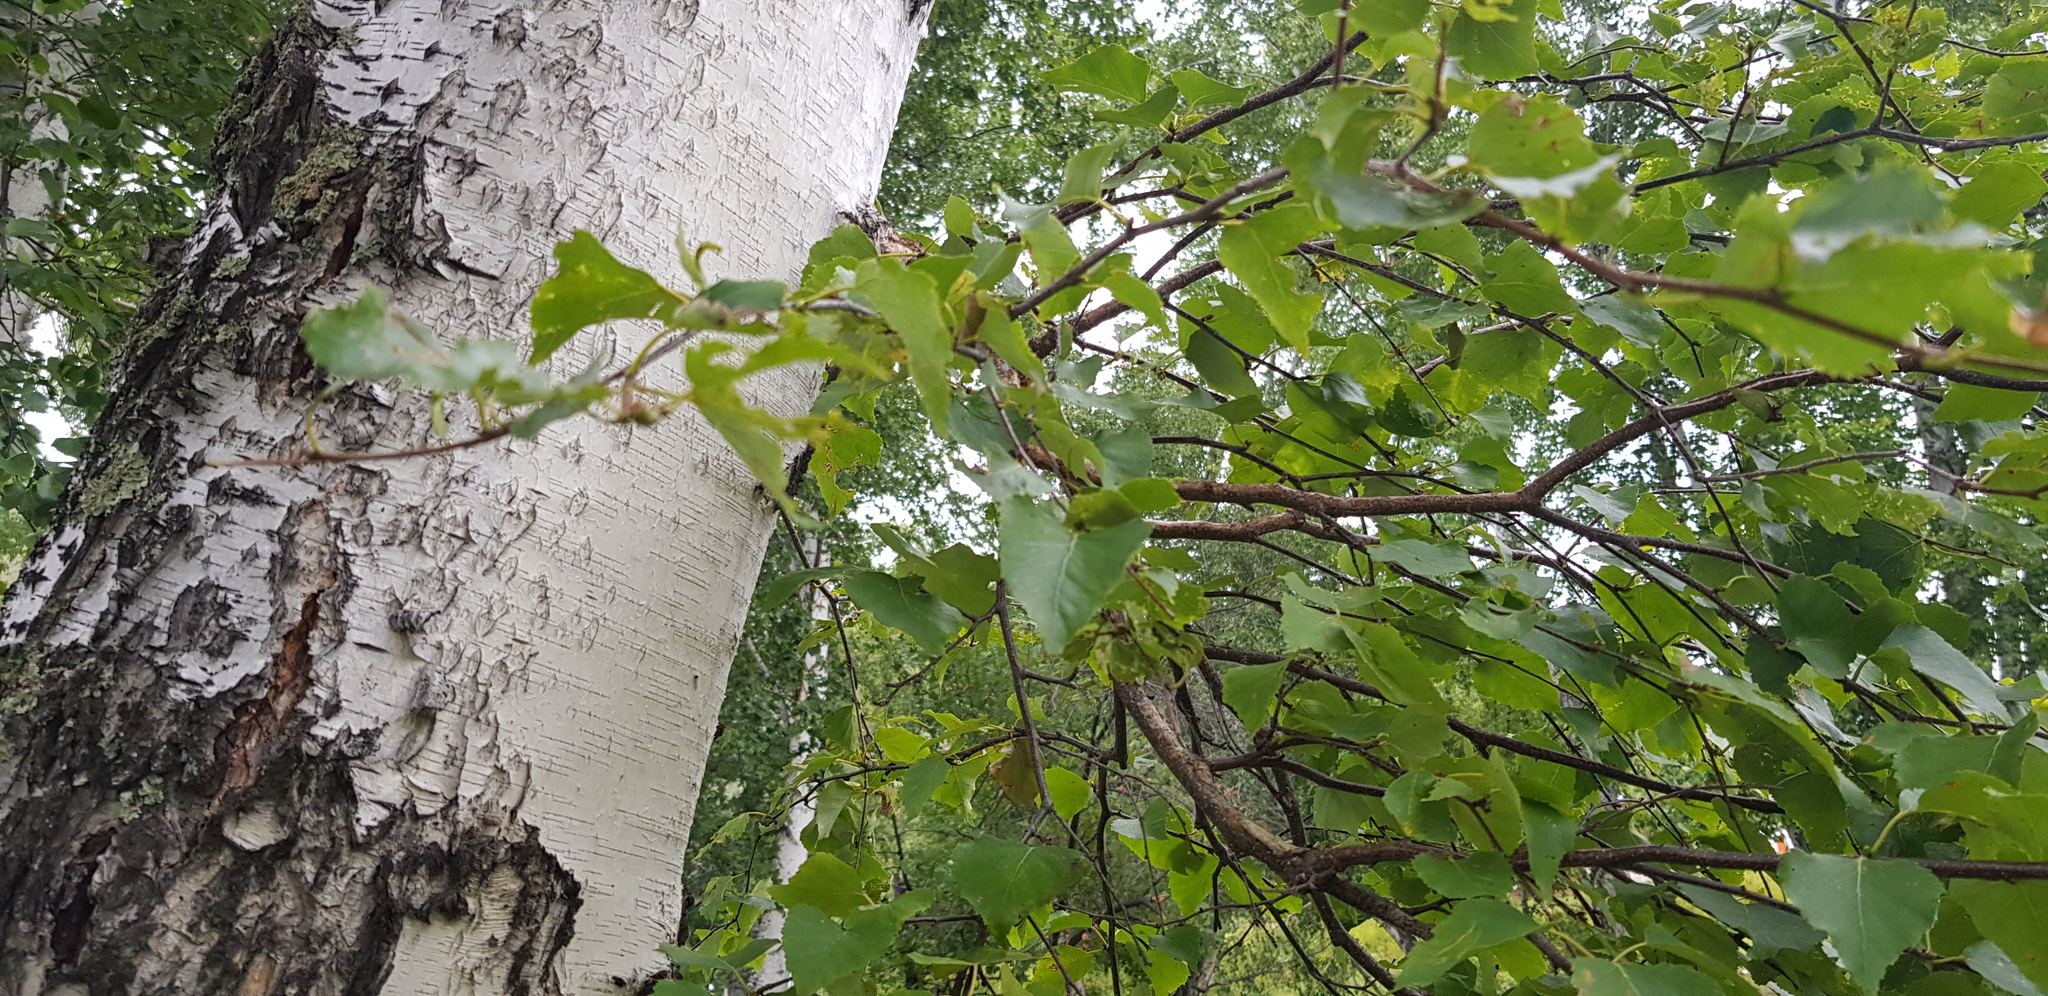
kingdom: Plantae
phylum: Tracheophyta
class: Magnoliopsida
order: Fagales
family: Betulaceae
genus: Betula
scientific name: Betula pendula
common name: Silver birch
